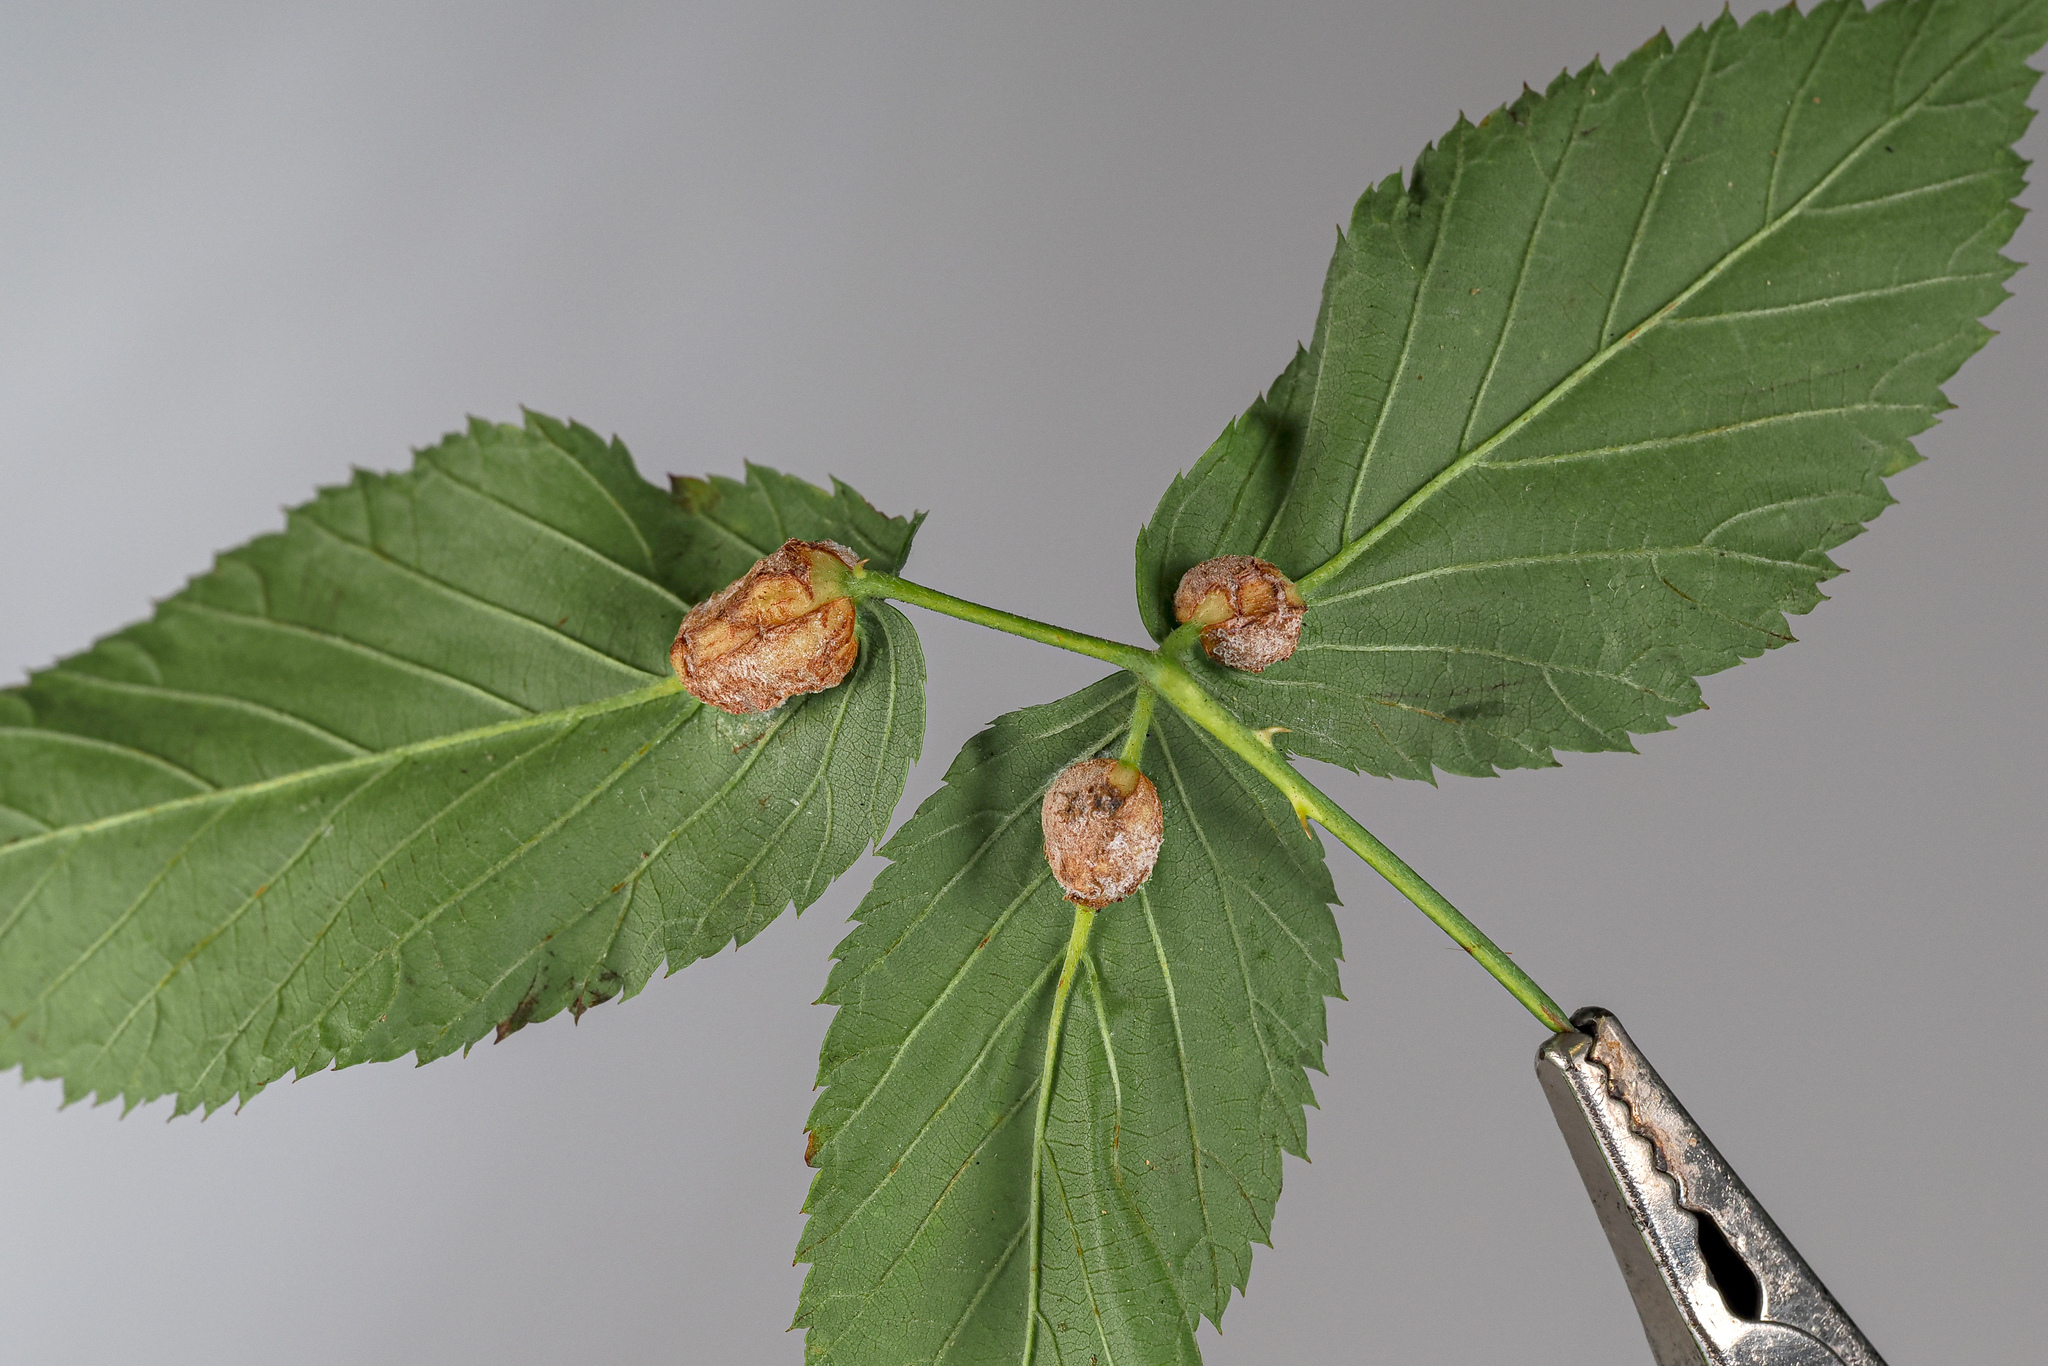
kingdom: Animalia
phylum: Arthropoda
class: Insecta
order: Diptera
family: Cecidomyiidae
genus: Neolasioptera
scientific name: Neolasioptera farinosa
